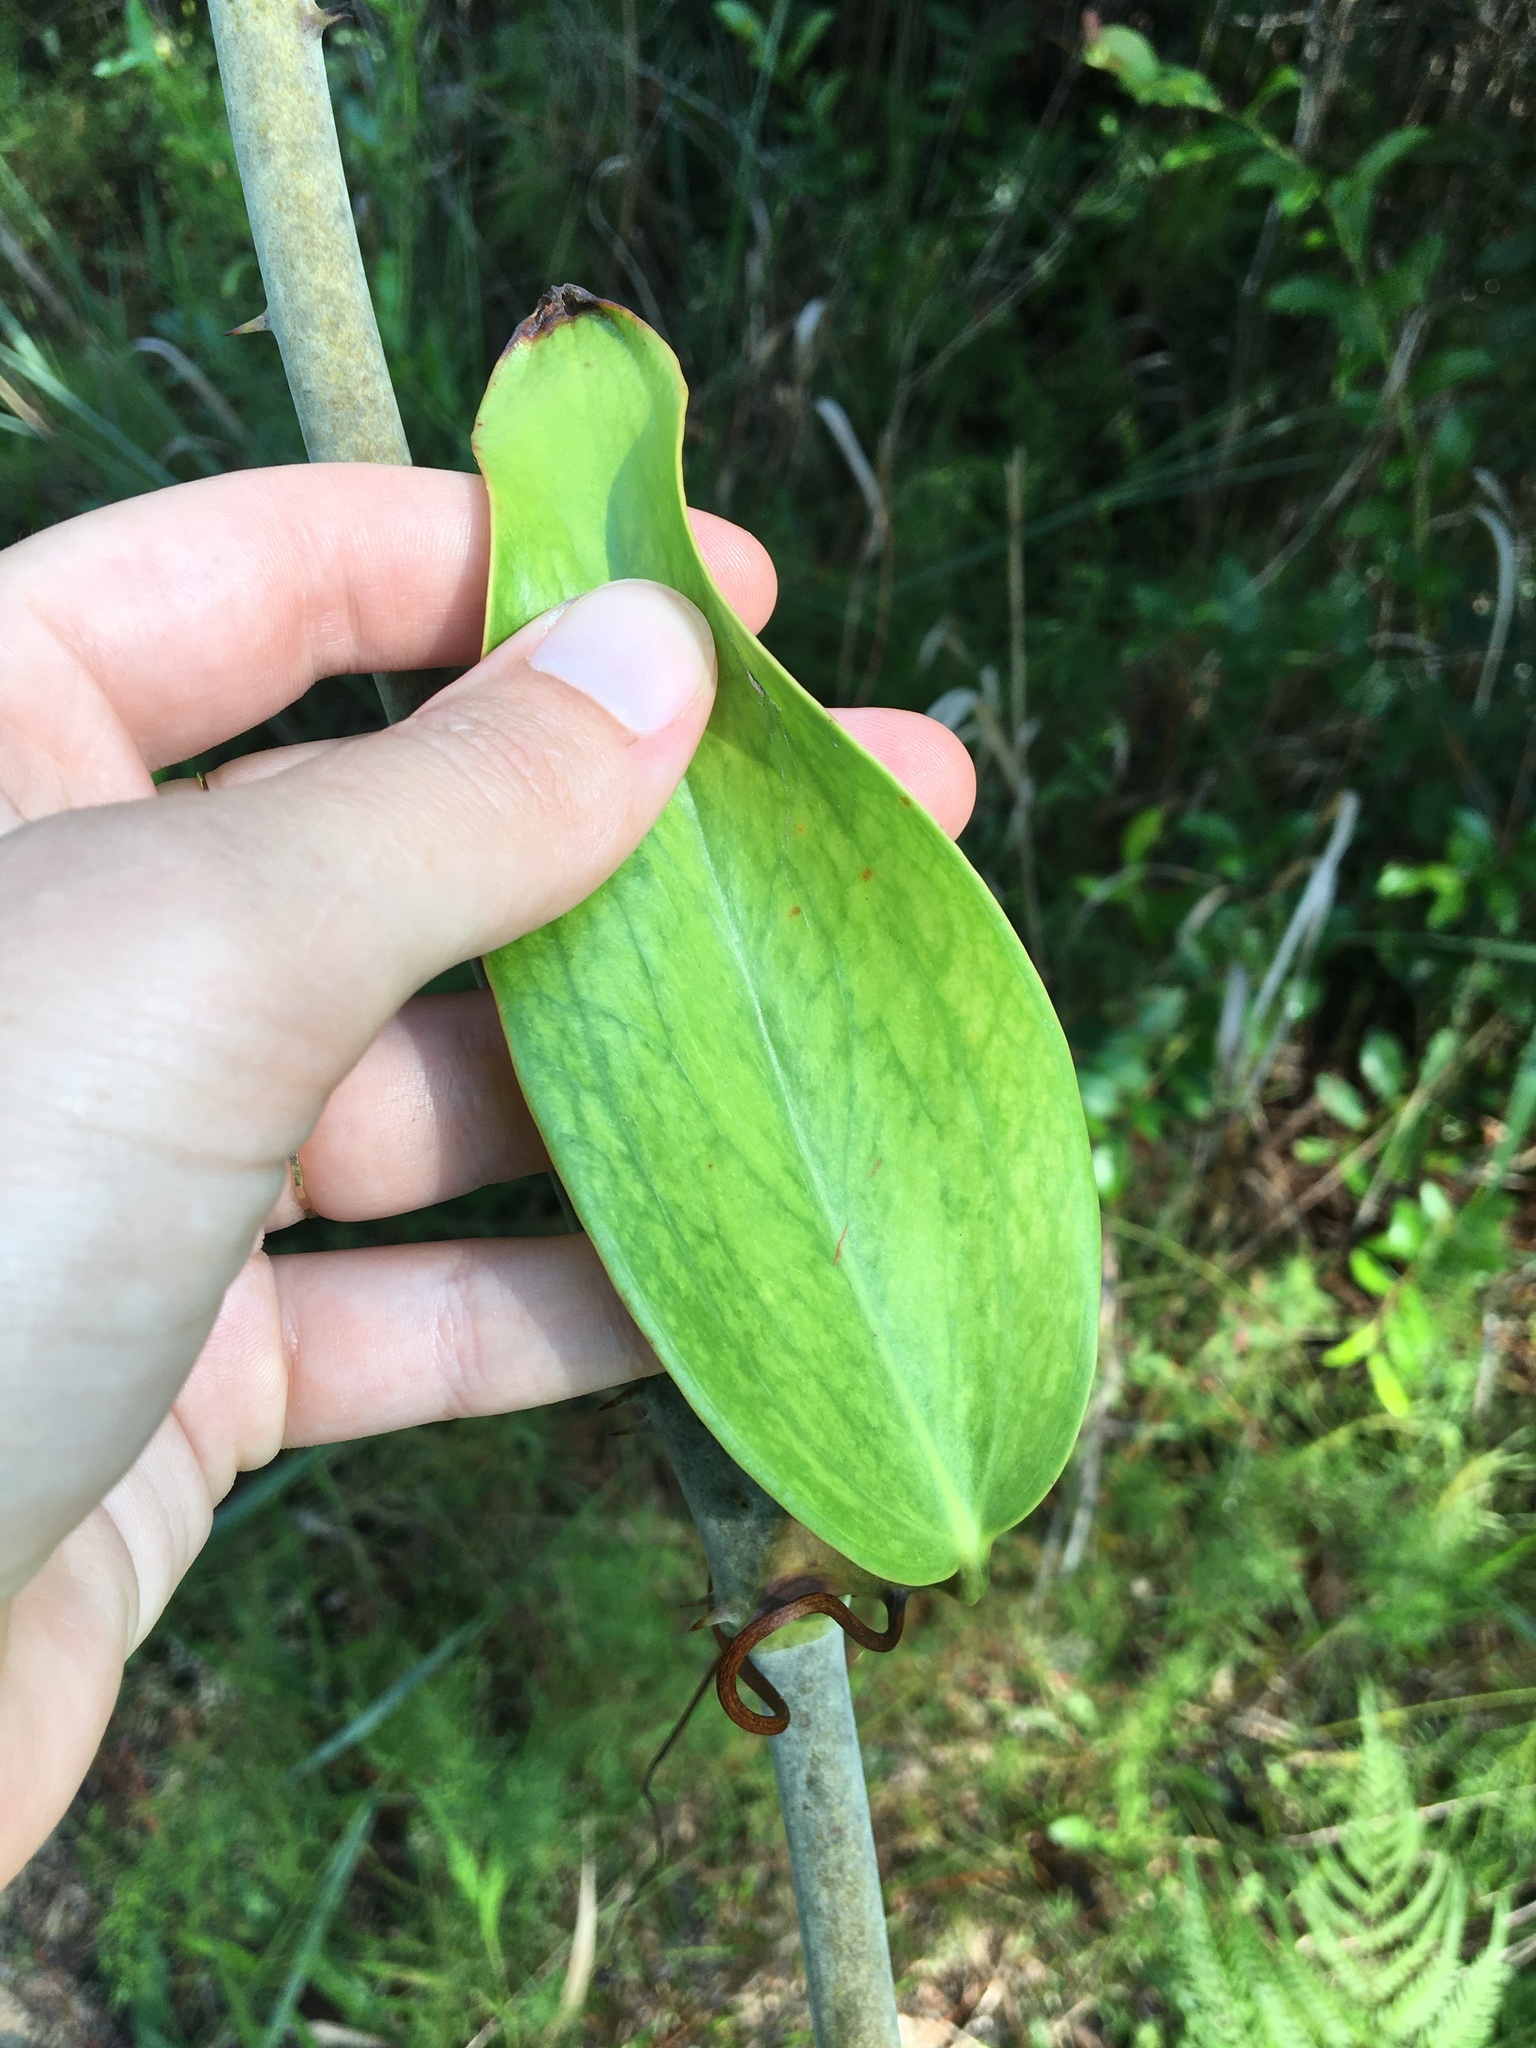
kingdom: Plantae
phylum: Tracheophyta
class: Liliopsida
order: Liliales
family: Smilacaceae
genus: Smilax
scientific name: Smilax laurifolia
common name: Bamboovine
